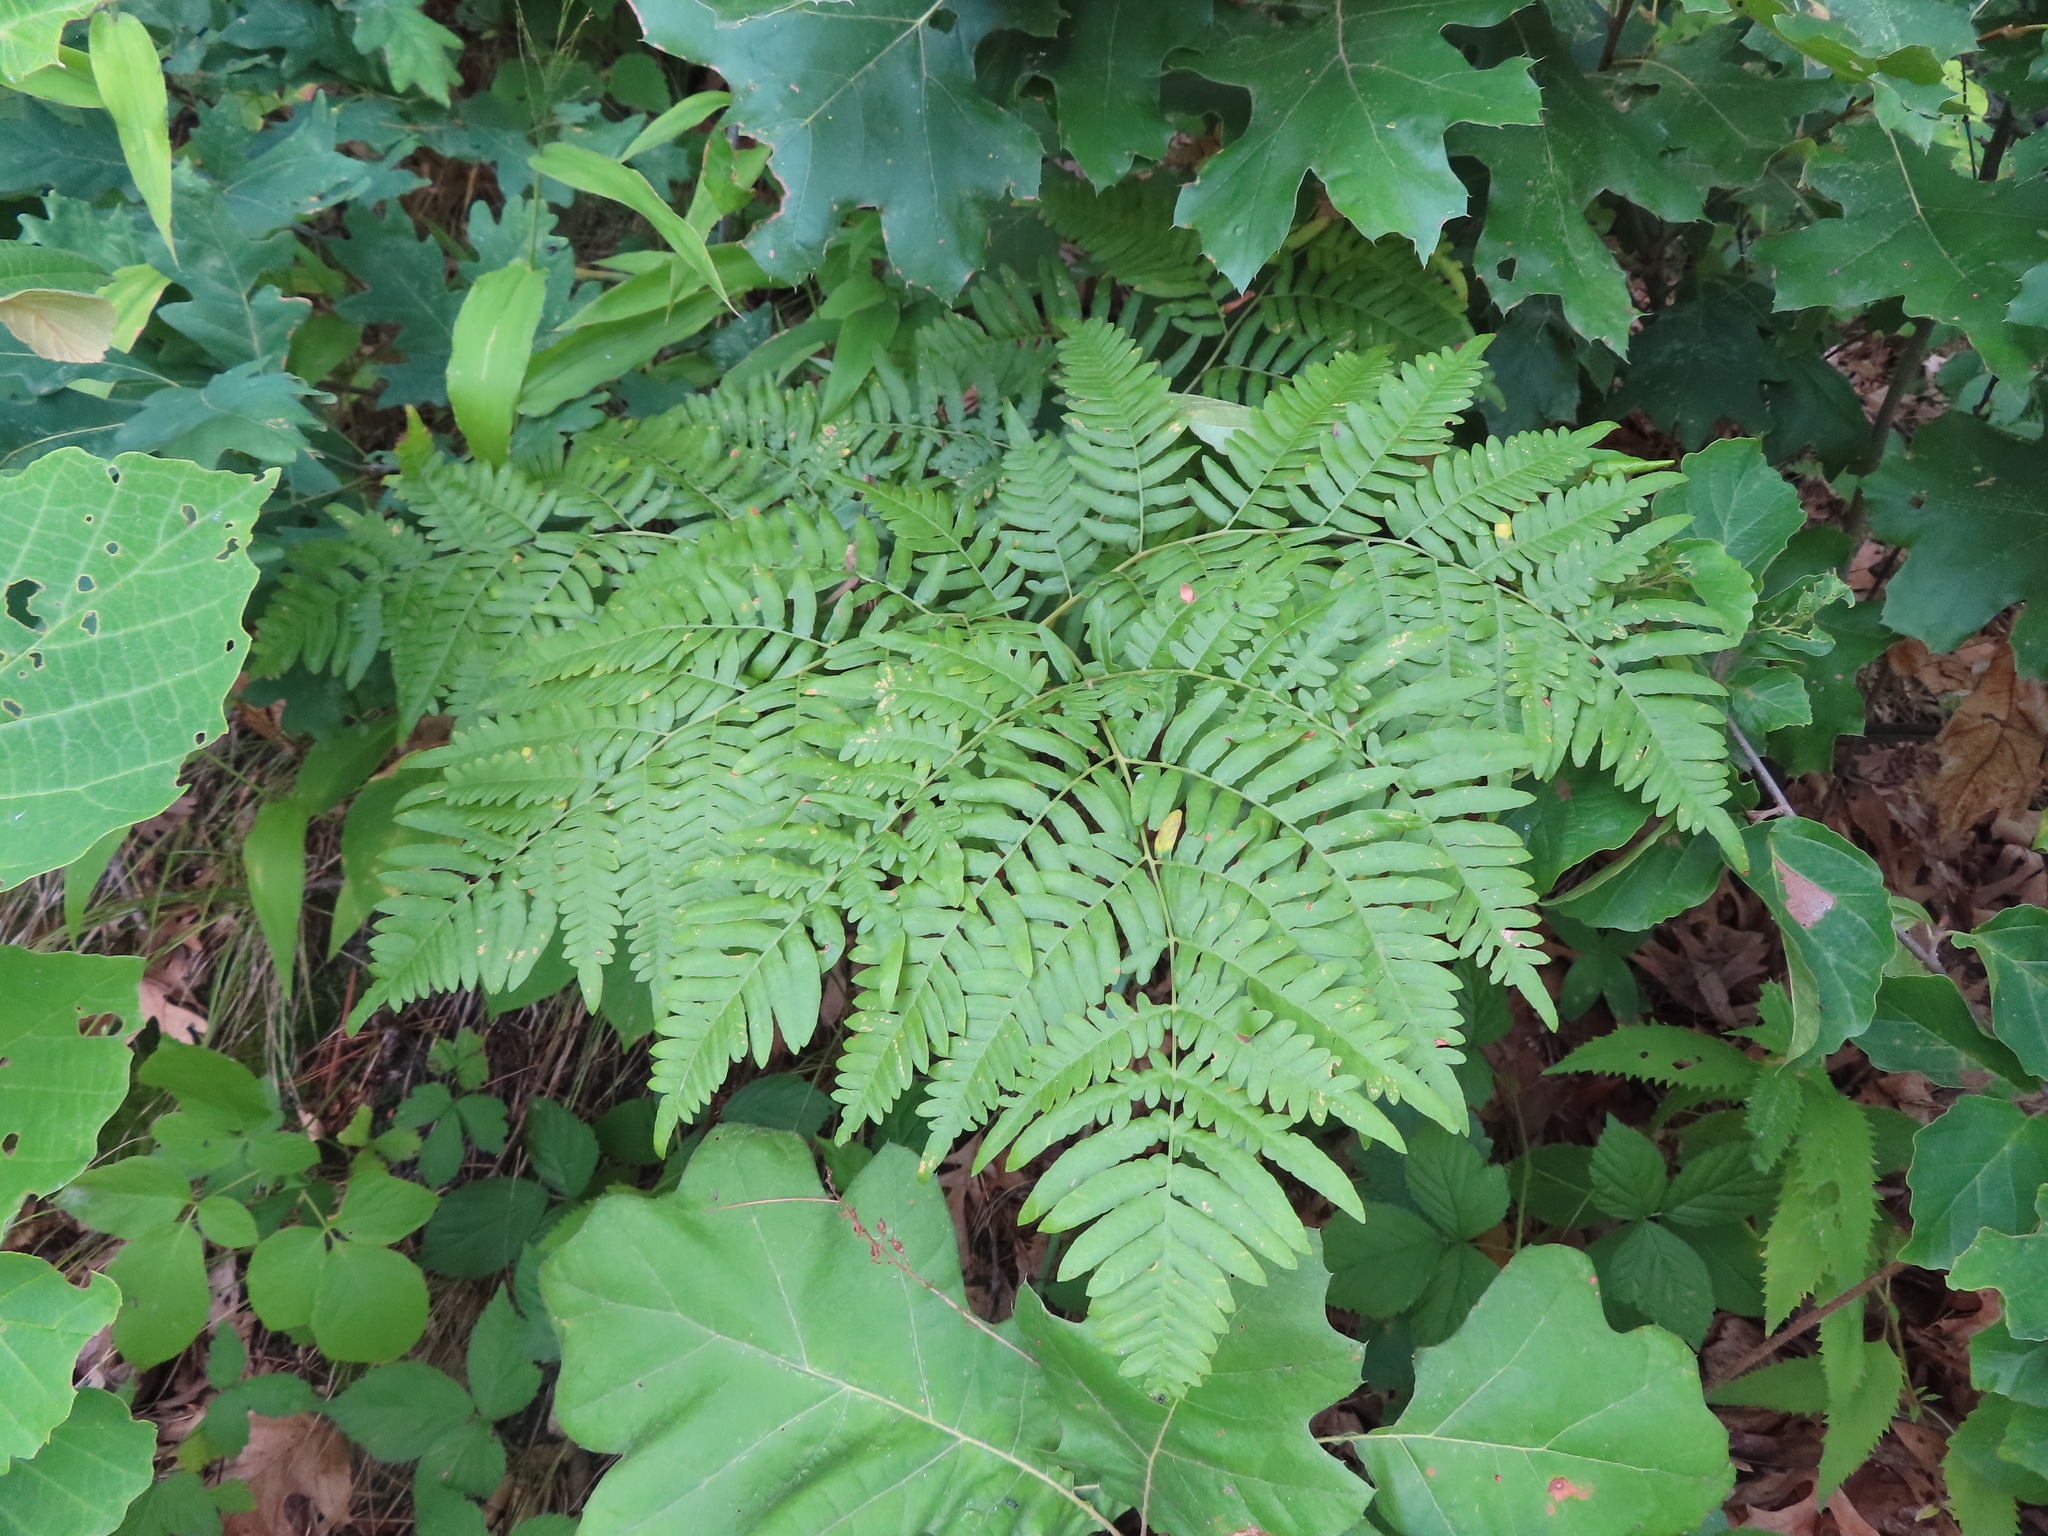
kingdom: Plantae
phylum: Tracheophyta
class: Polypodiopsida
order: Polypodiales
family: Dennstaedtiaceae
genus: Pteridium
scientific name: Pteridium aquilinum
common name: Bracken
